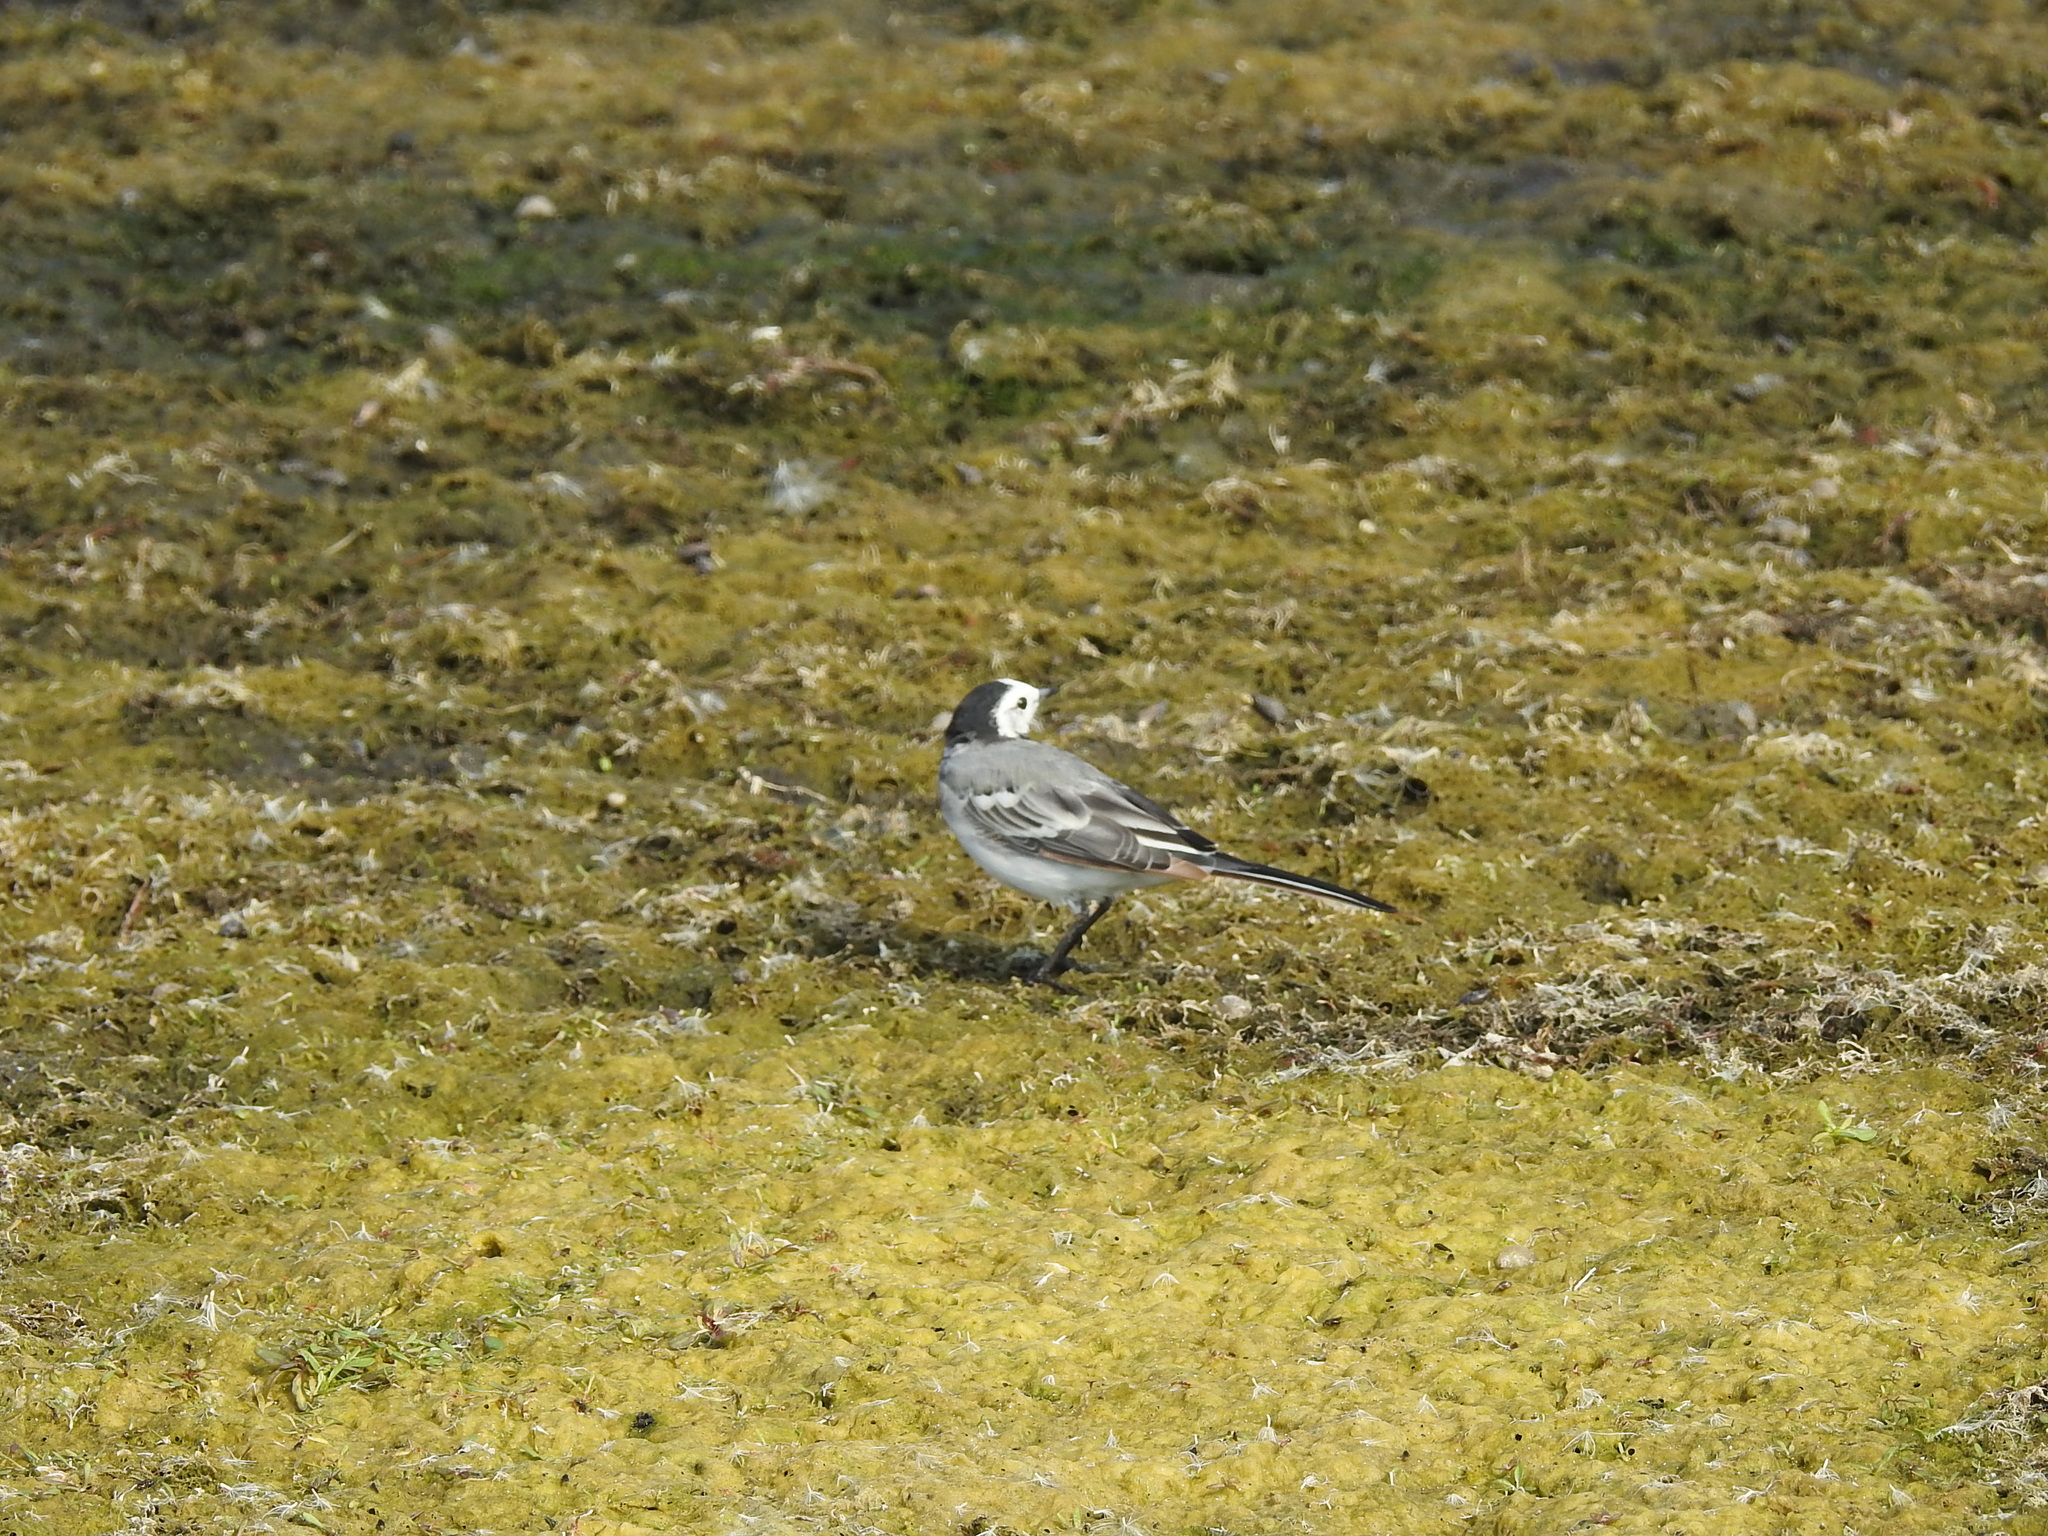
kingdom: Animalia
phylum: Chordata
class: Aves
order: Passeriformes
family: Motacillidae
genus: Motacilla
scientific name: Motacilla alba
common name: White wagtail
